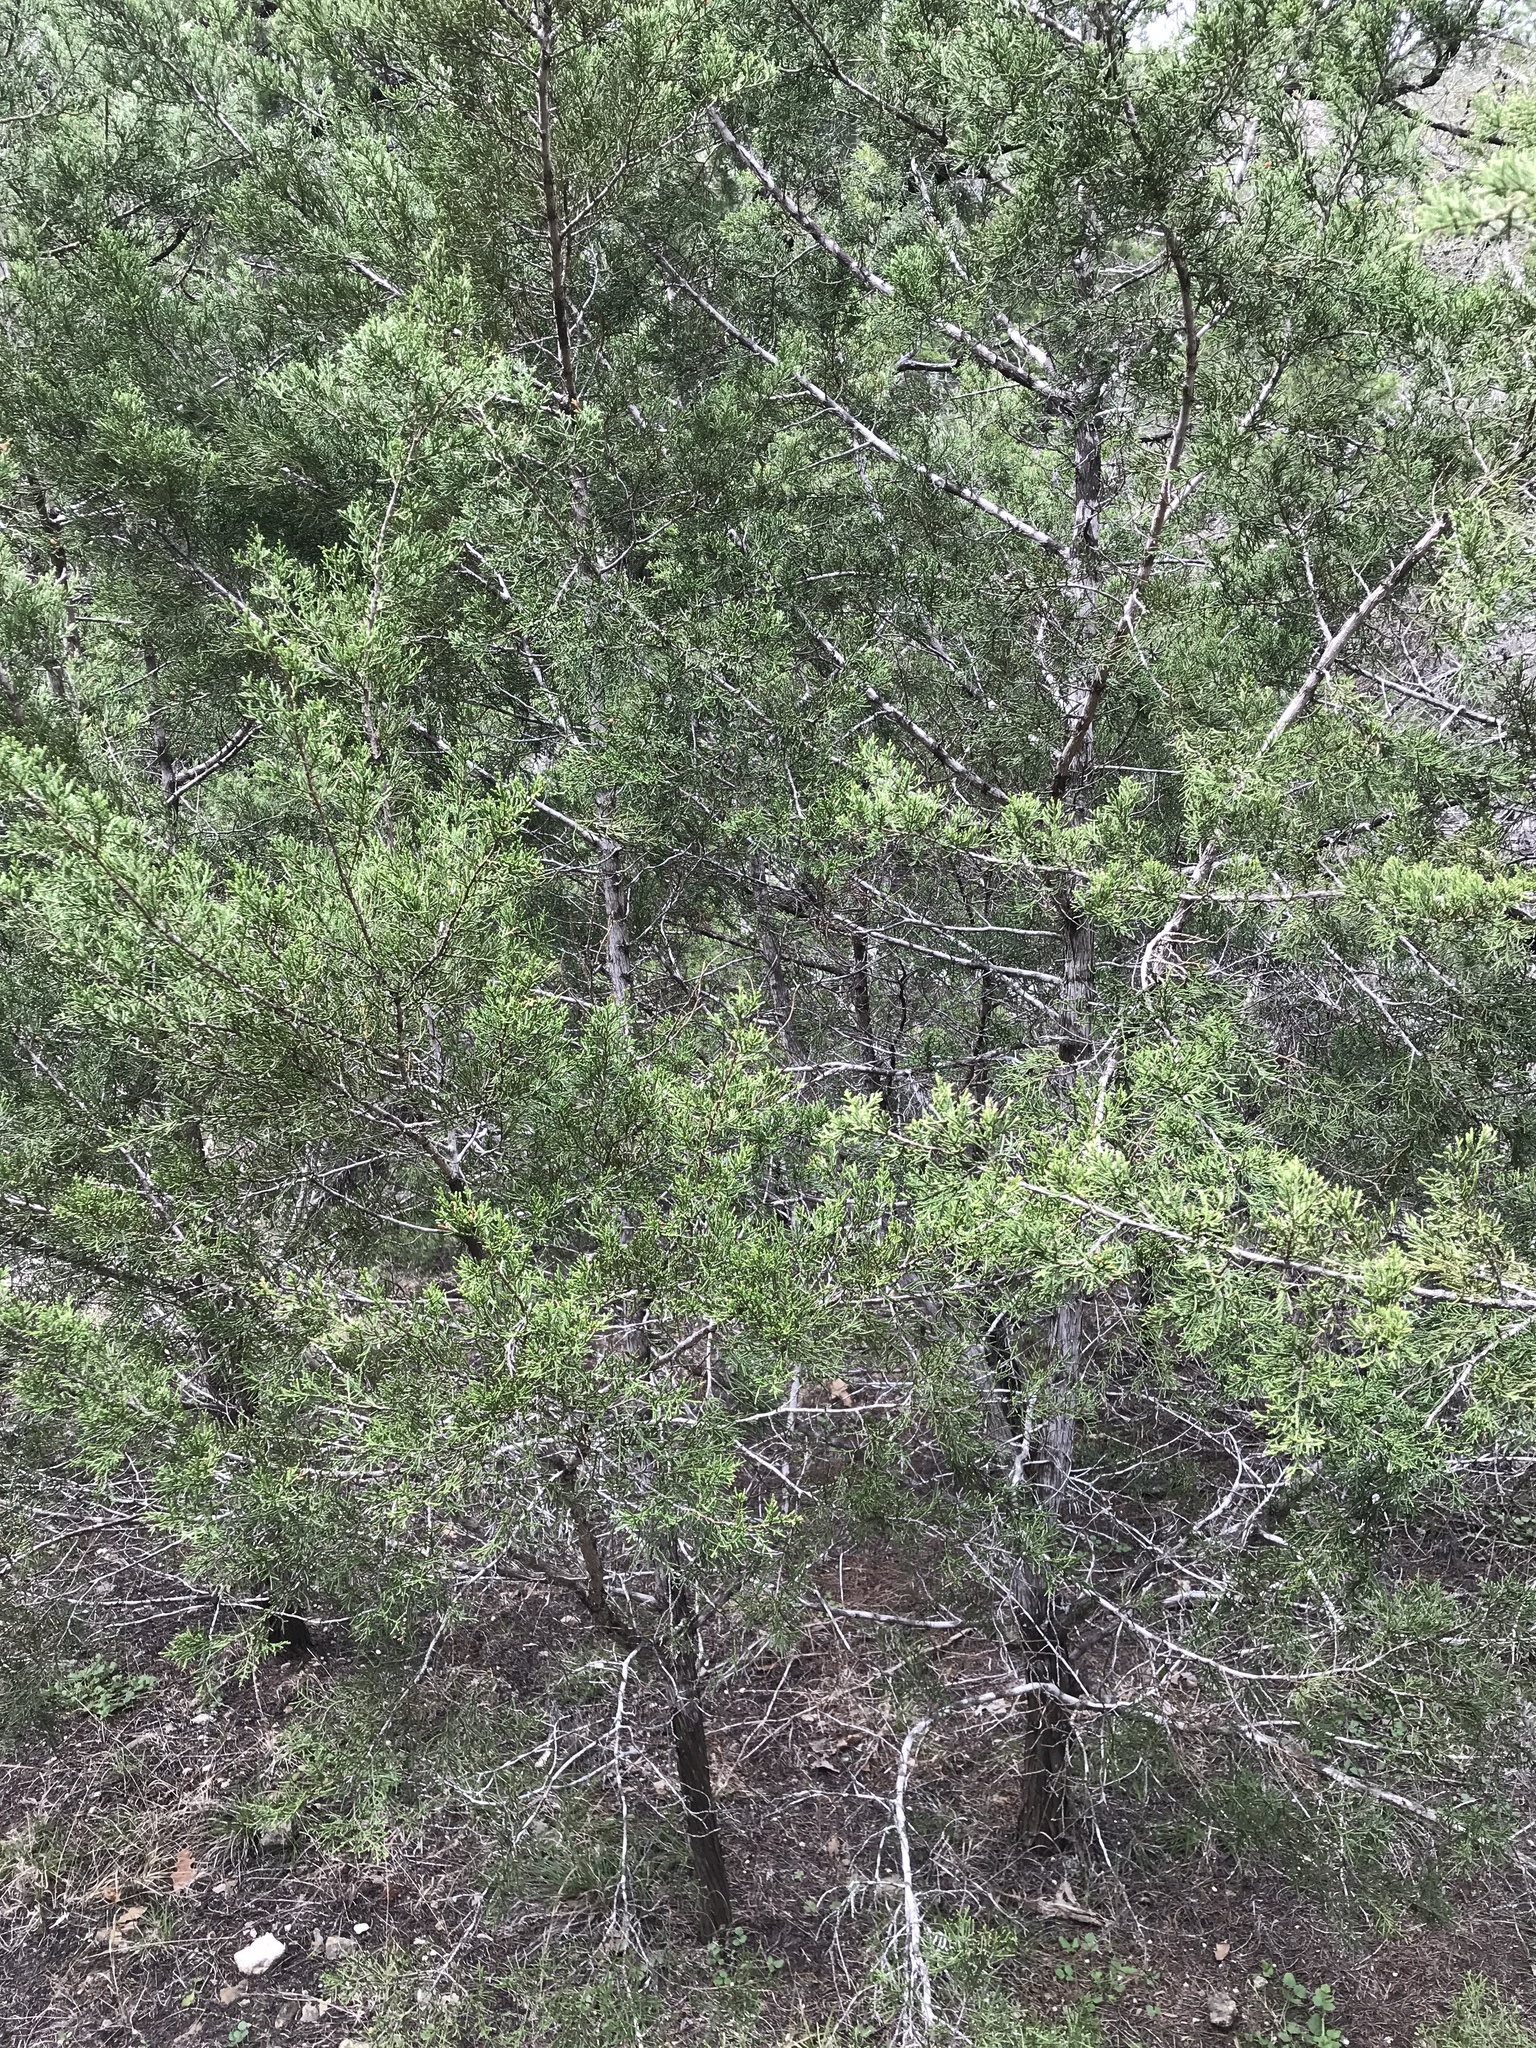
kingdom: Fungi
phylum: Ascomycota
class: Lecanoromycetes
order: Ostropales
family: Stictidaceae
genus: Robergea
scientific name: Robergea
